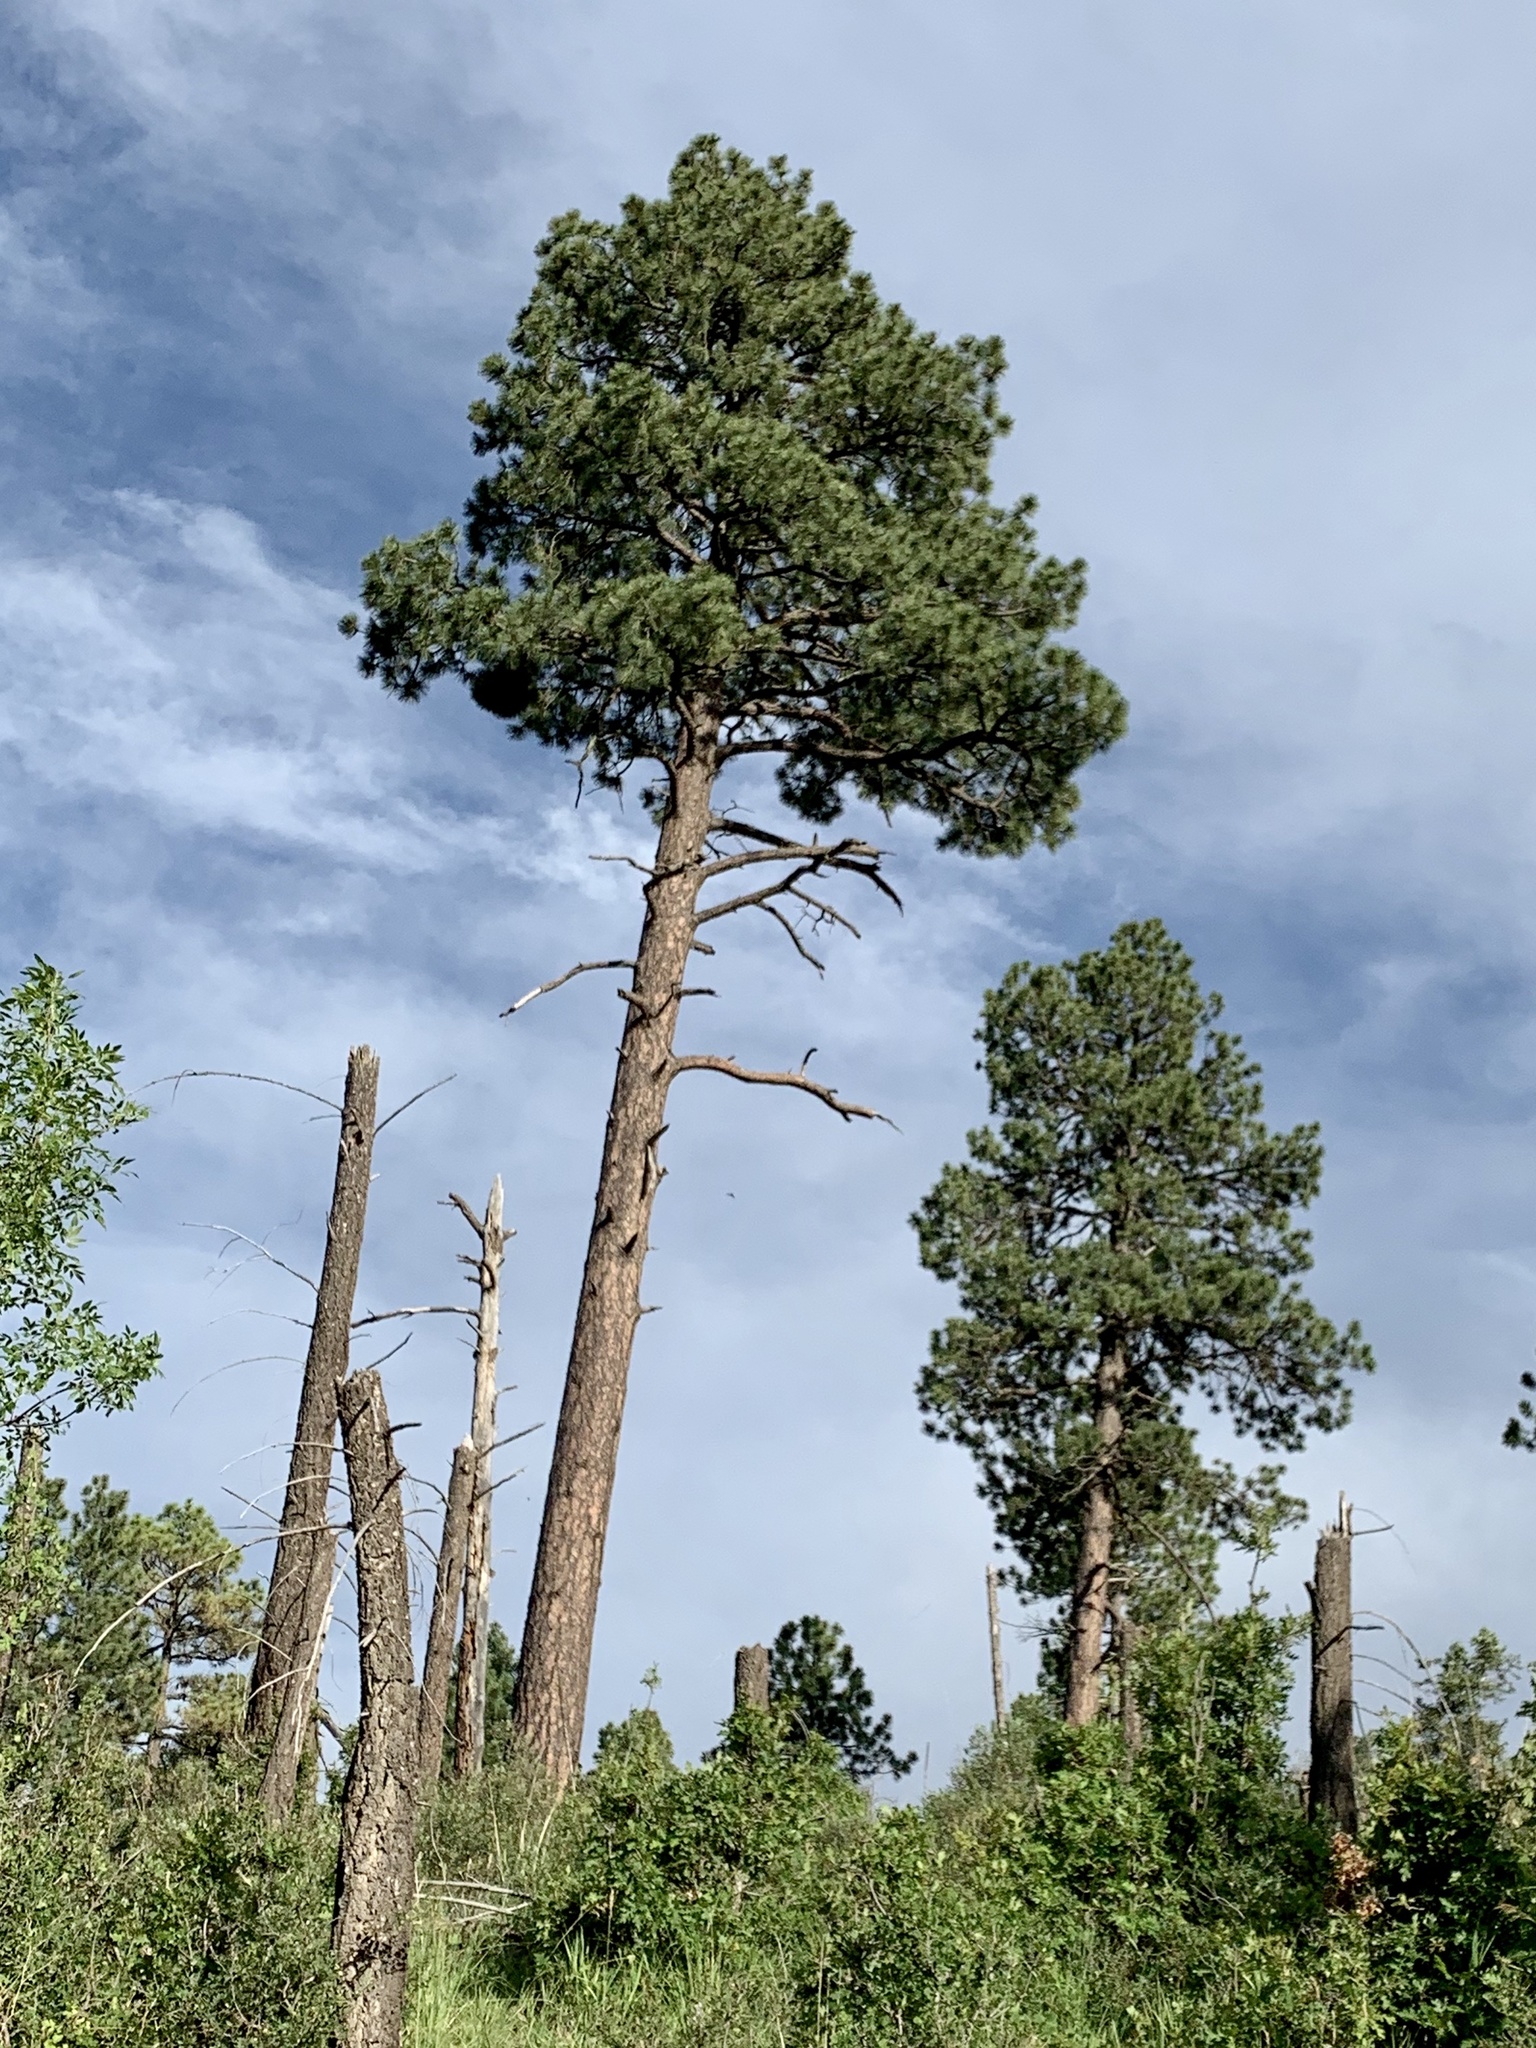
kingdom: Plantae
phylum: Tracheophyta
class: Pinopsida
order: Pinales
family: Pinaceae
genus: Pinus
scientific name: Pinus ponderosa
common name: Western yellow-pine
